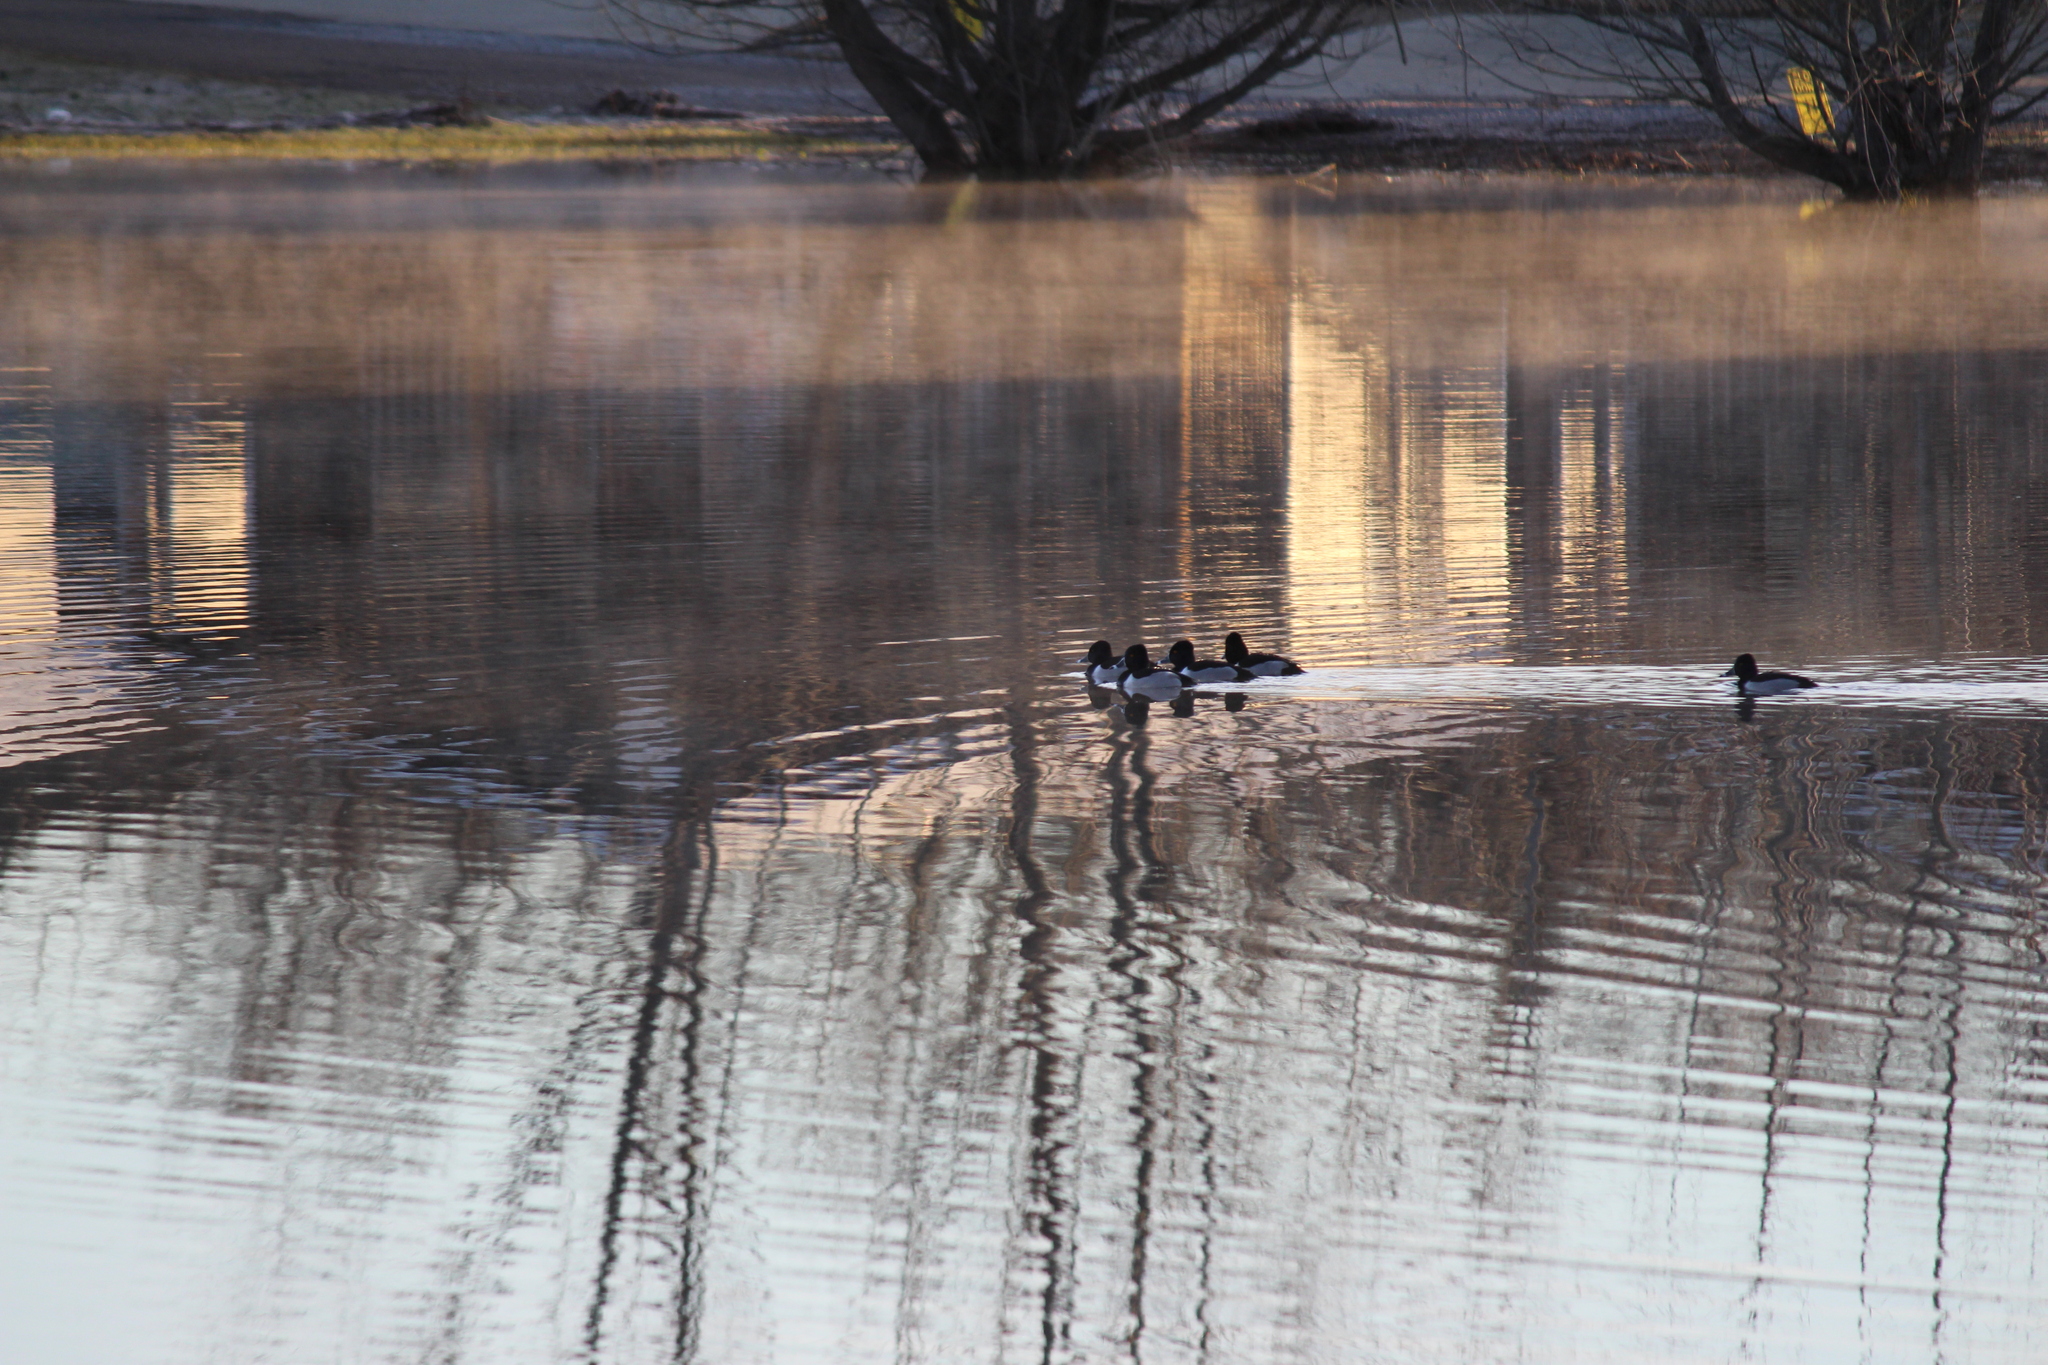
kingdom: Animalia
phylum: Chordata
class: Aves
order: Anseriformes
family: Anatidae
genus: Aythya
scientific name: Aythya collaris
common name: Ring-necked duck
